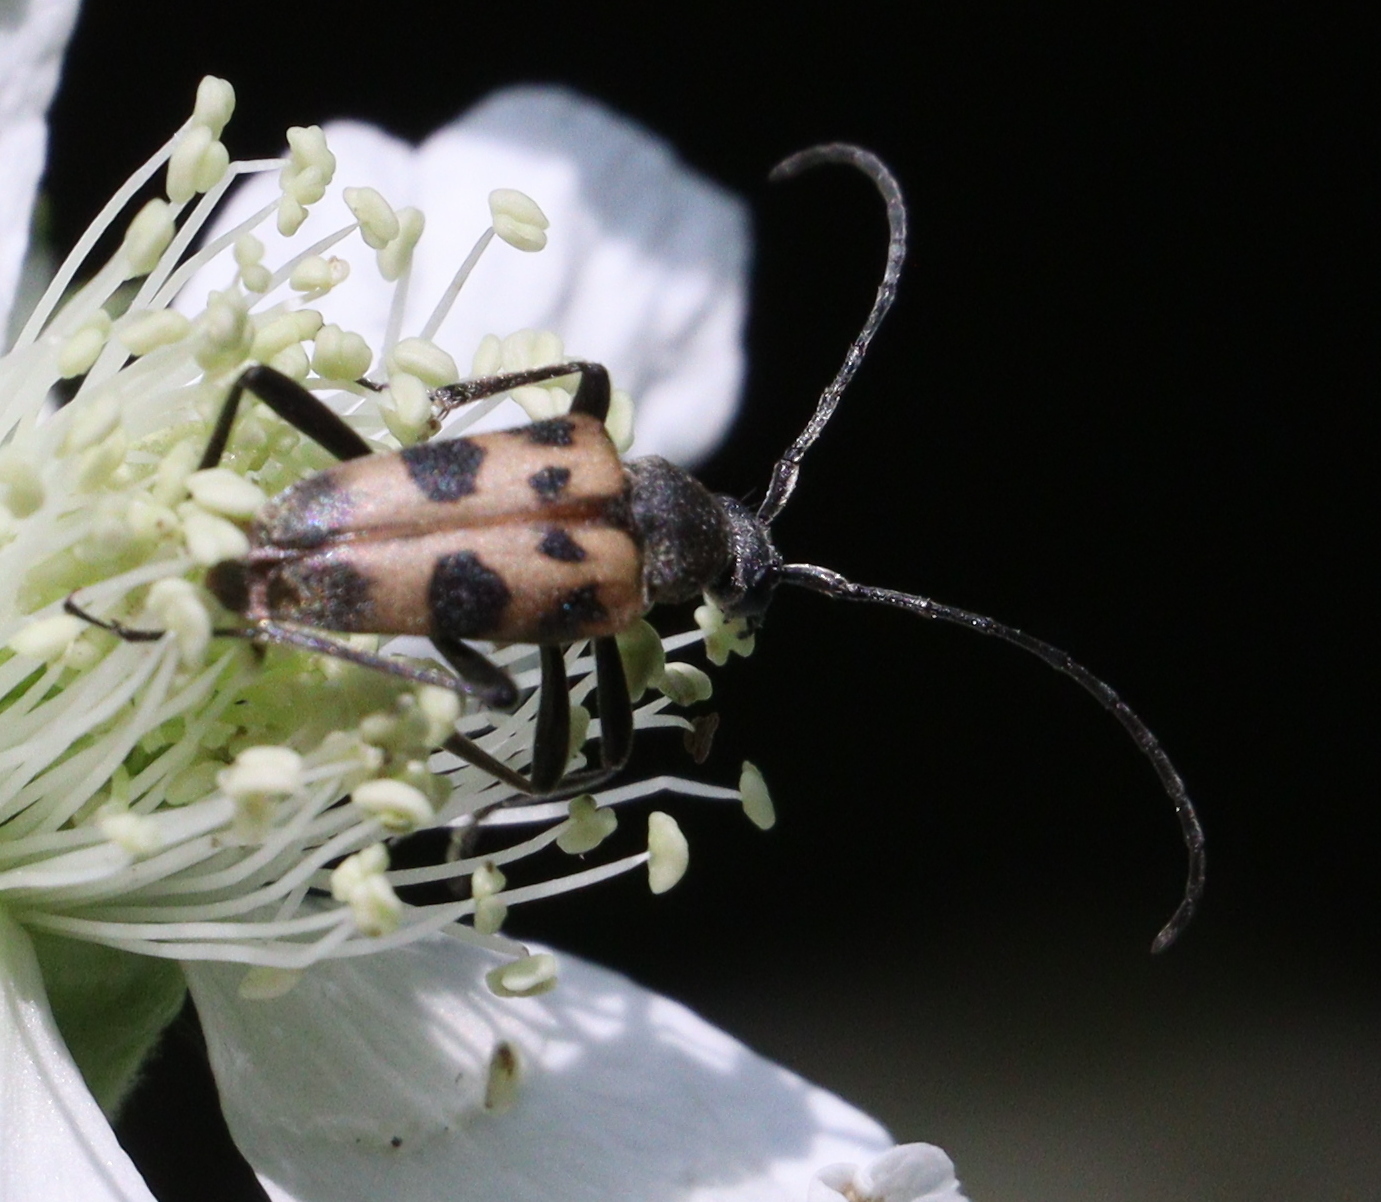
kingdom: Animalia
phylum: Arthropoda
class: Insecta
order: Coleoptera
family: Cerambycidae
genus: Pachytodes
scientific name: Pachytodes cerambyciformis
